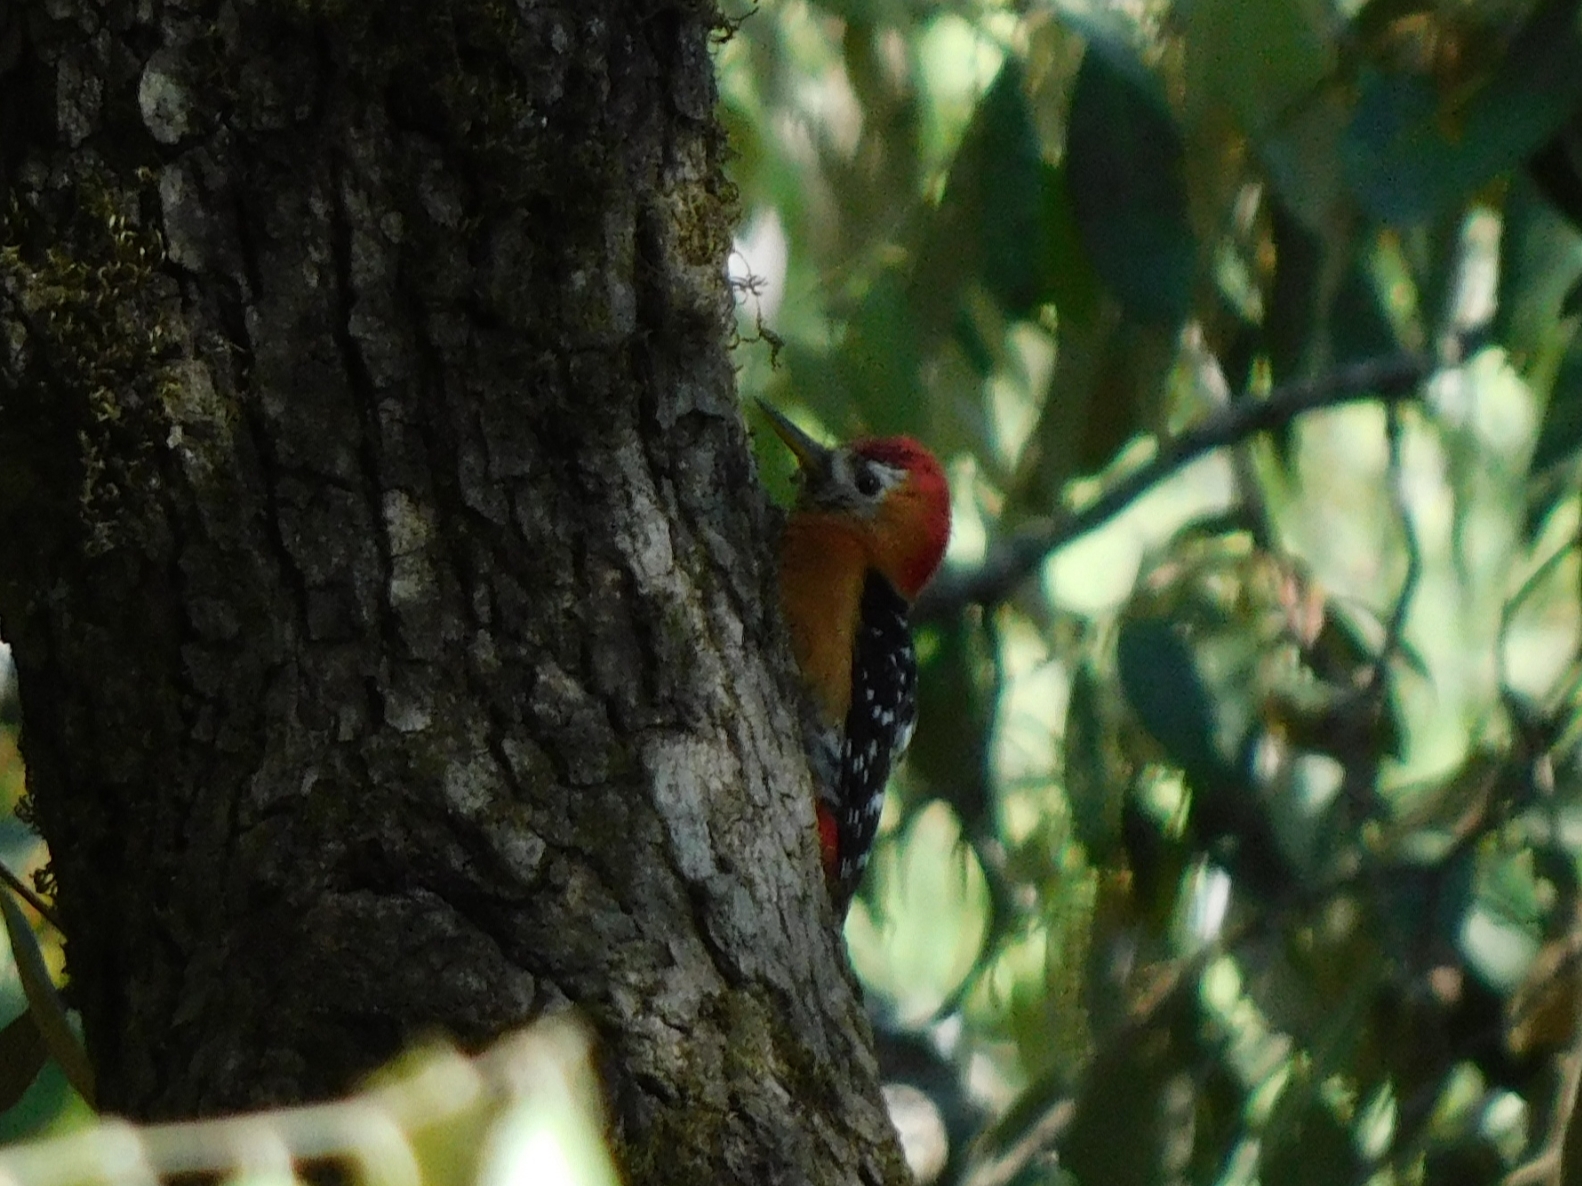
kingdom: Animalia
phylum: Chordata
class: Aves
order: Piciformes
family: Picidae
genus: Dendrocopos
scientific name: Dendrocopos hyperythrus
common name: Rufous-bellied woodpecker
